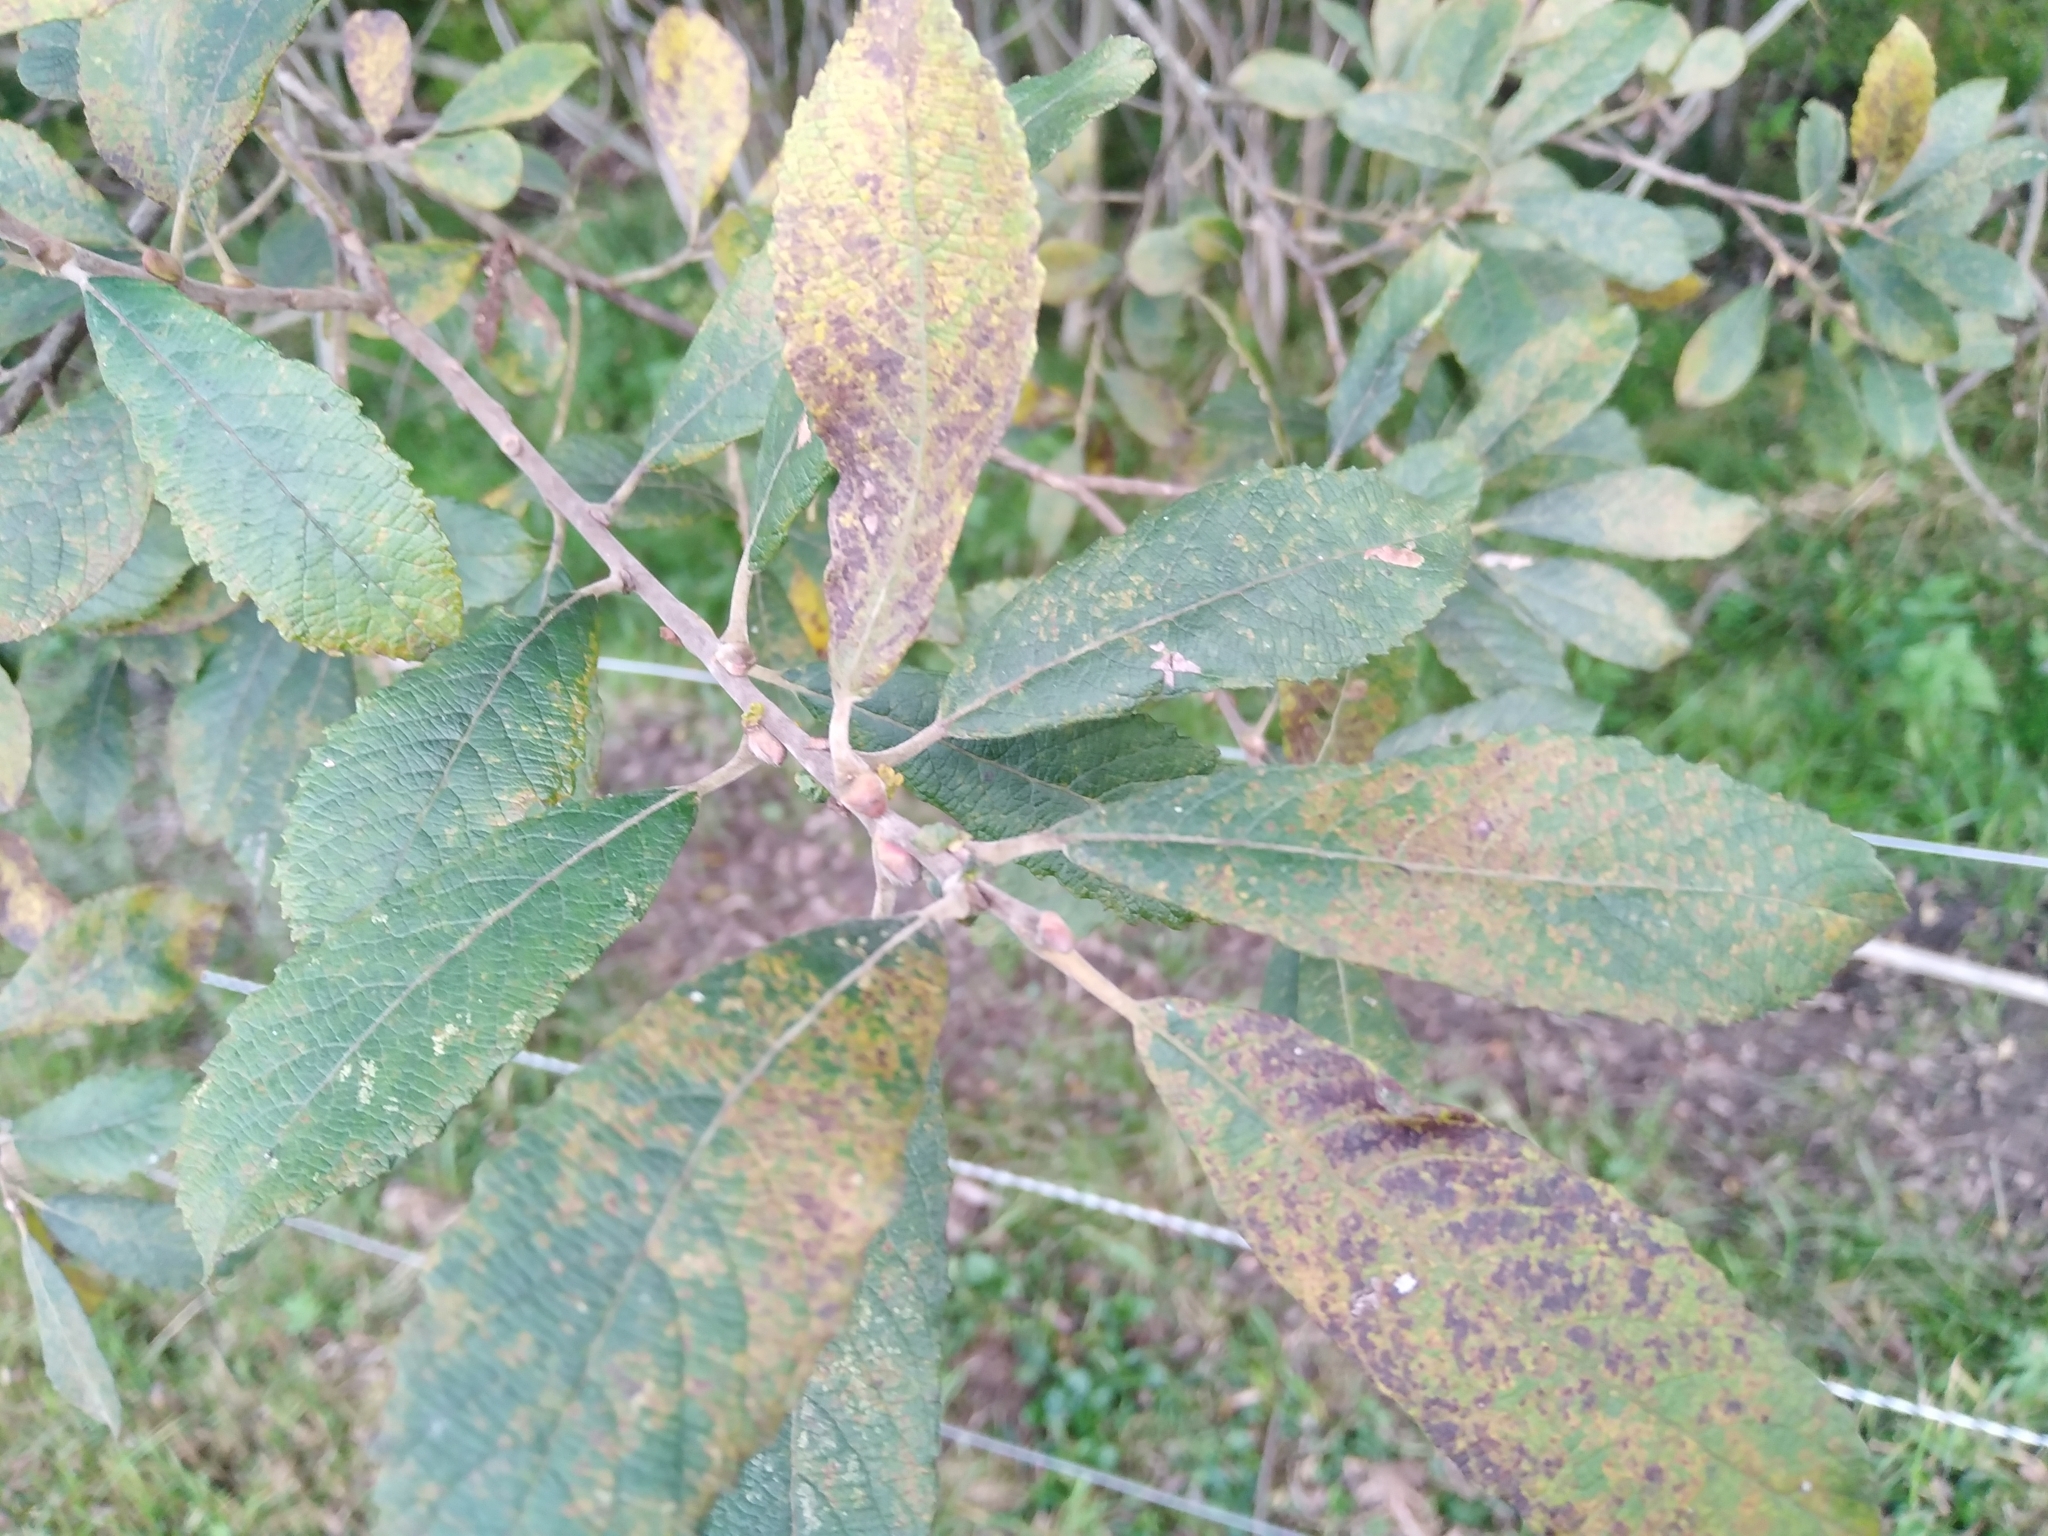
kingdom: Plantae
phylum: Tracheophyta
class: Magnoliopsida
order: Malpighiales
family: Salicaceae
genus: Salix
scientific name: Salix cinerea
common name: Common sallow
